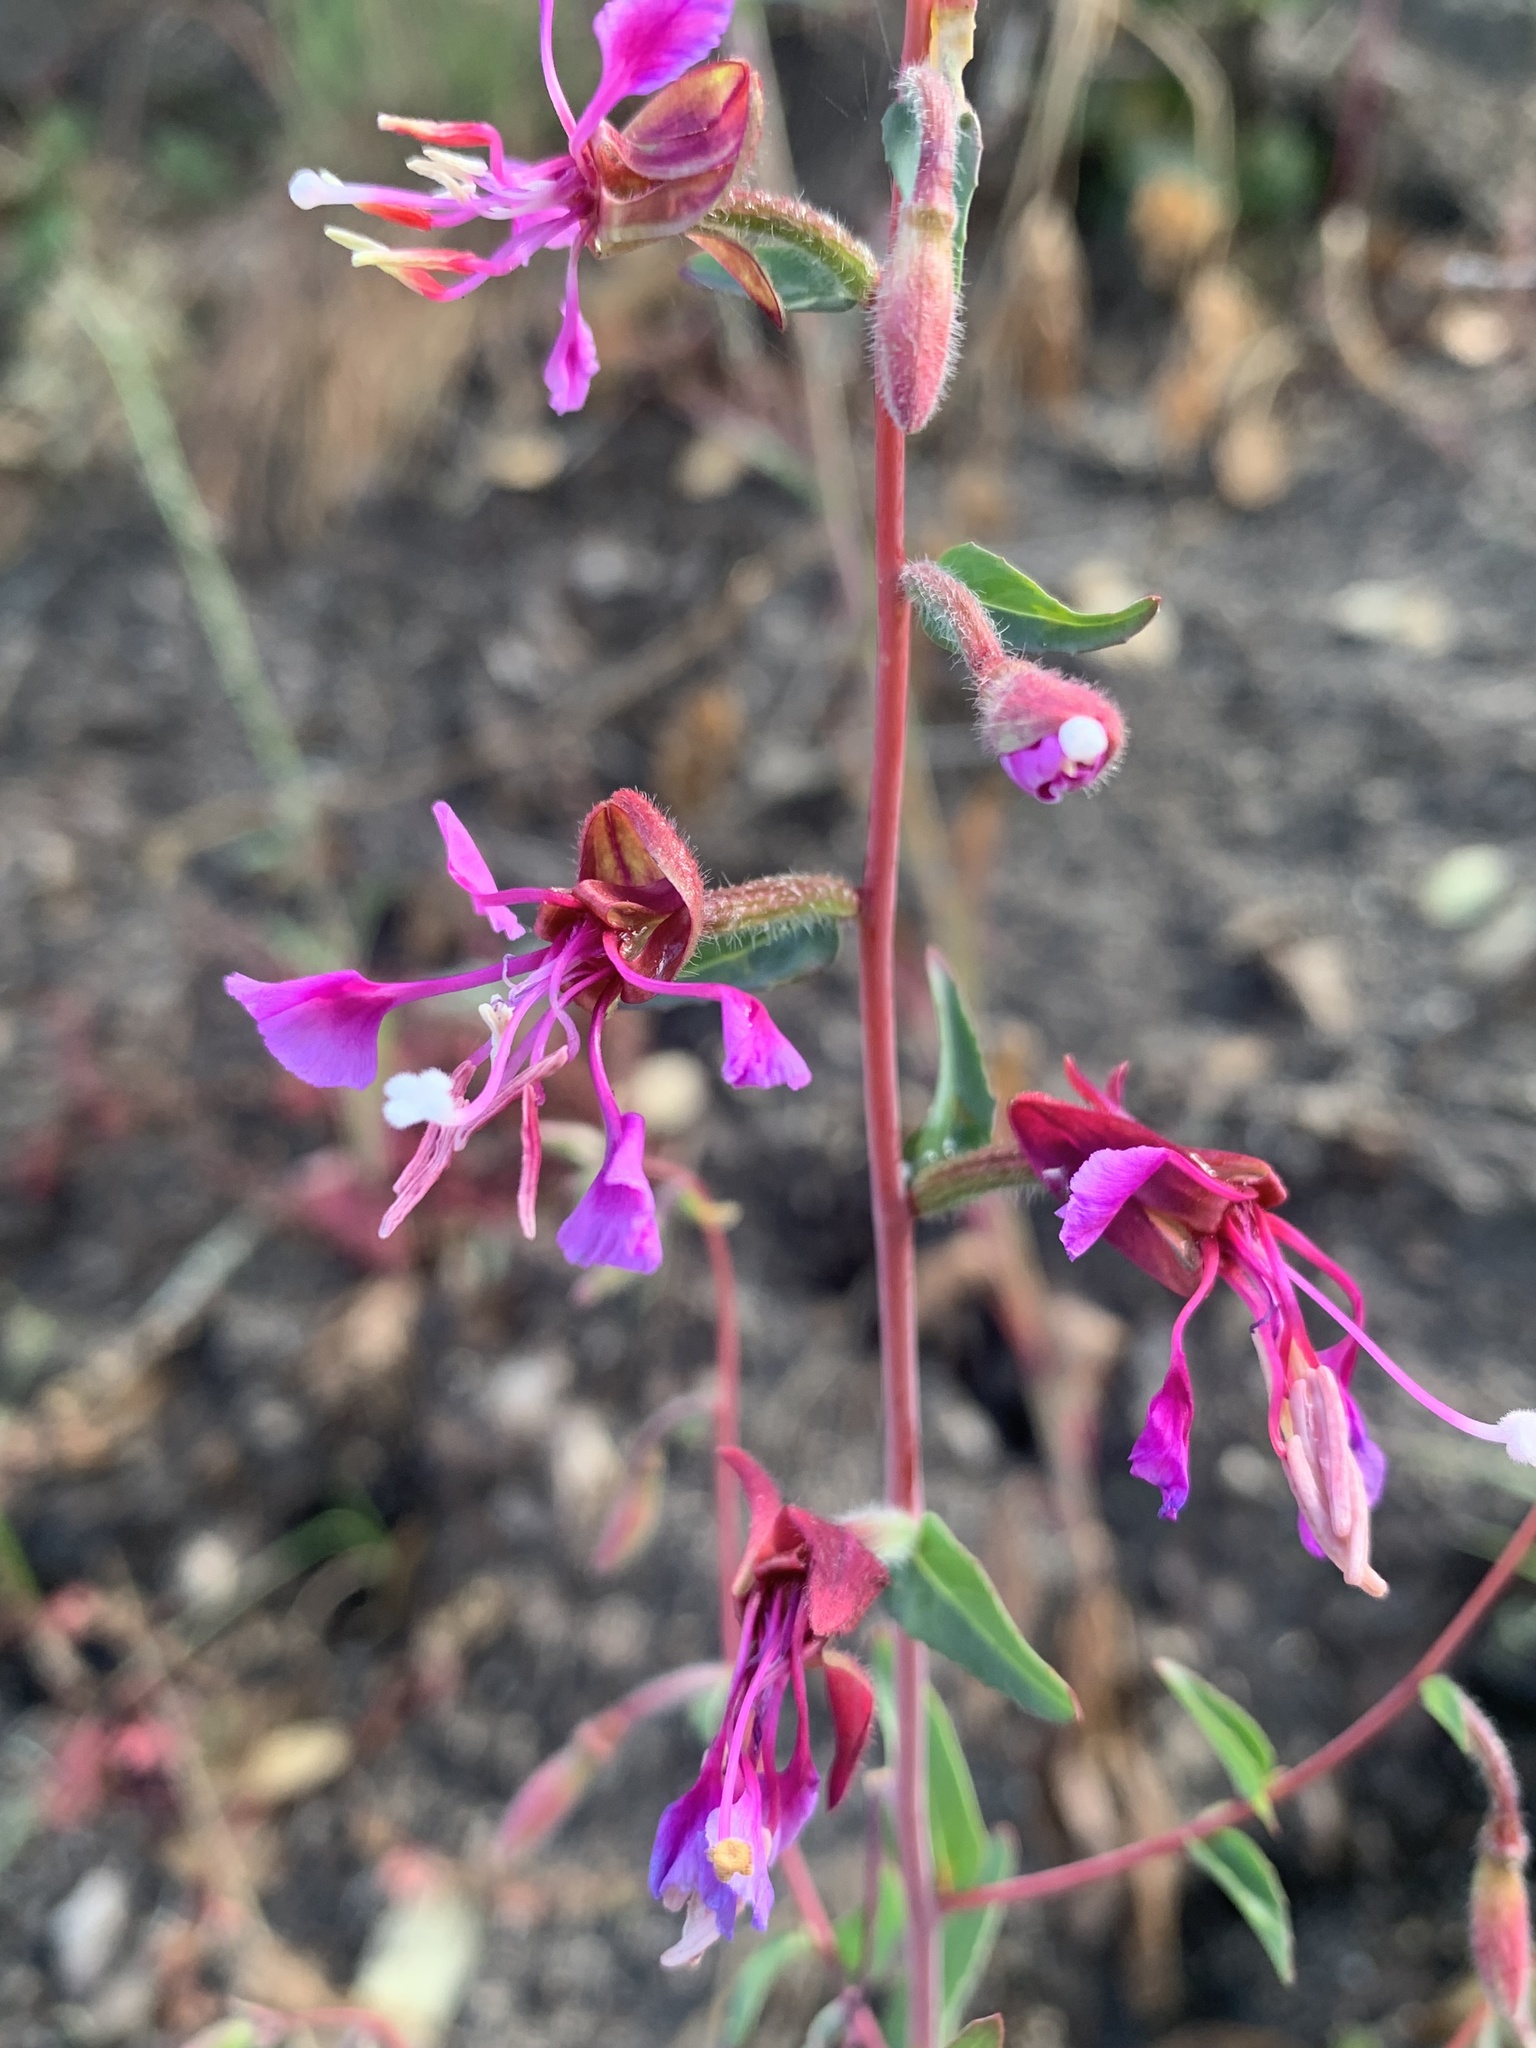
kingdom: Plantae
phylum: Tracheophyta
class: Magnoliopsida
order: Myrtales
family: Onagraceae
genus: Clarkia
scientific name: Clarkia unguiculata
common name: Clarkia
